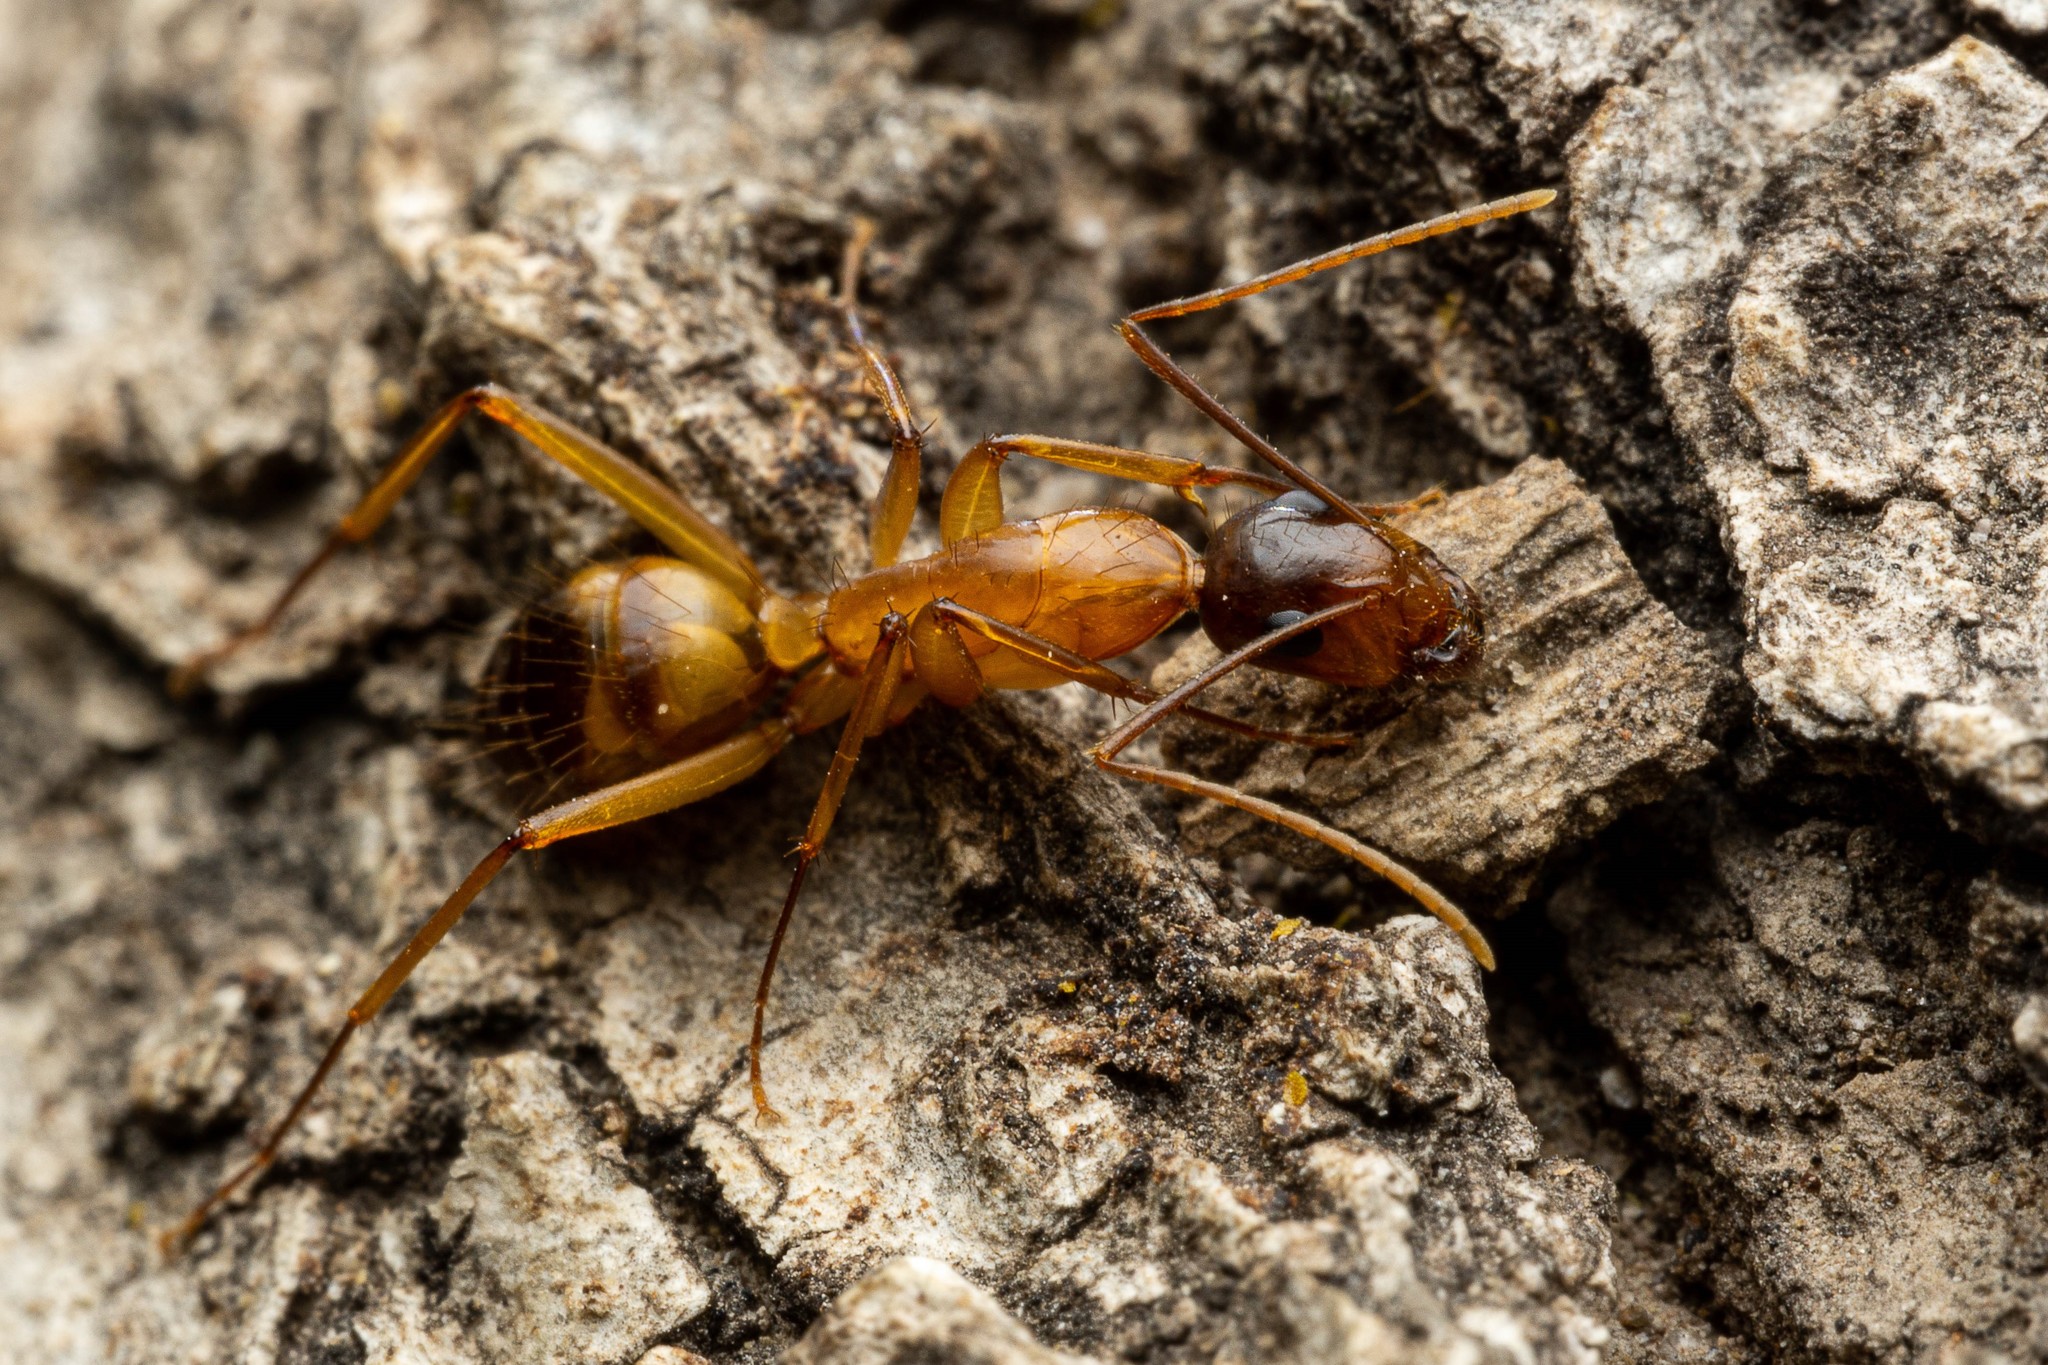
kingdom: Animalia
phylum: Arthropoda
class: Insecta
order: Hymenoptera
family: Formicidae
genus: Camponotus
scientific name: Camponotus vafer
